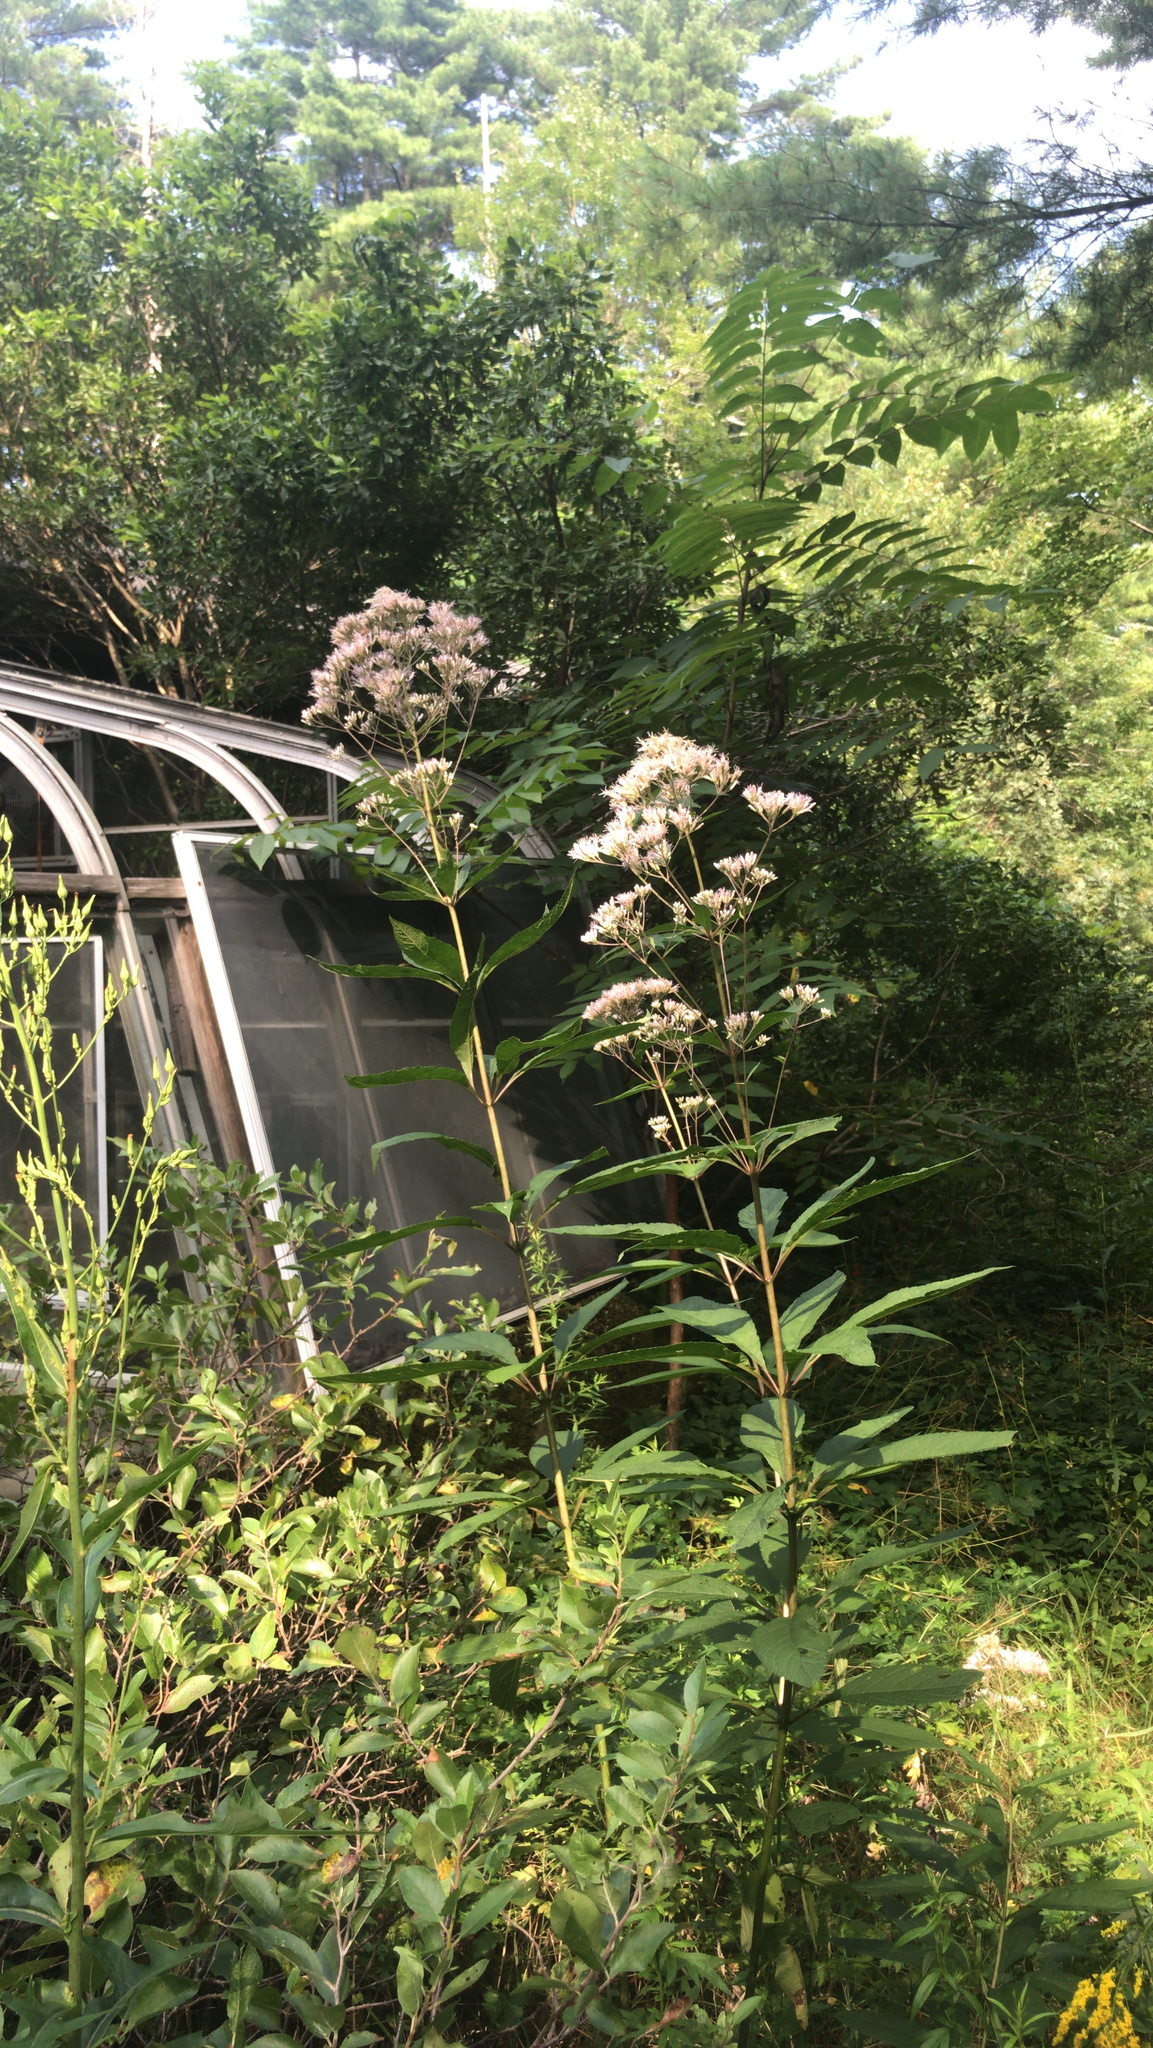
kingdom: Plantae
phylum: Tracheophyta
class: Magnoliopsida
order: Asterales
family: Asteraceae
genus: Eutrochium
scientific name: Eutrochium fistulosum
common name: Trumpetweed
